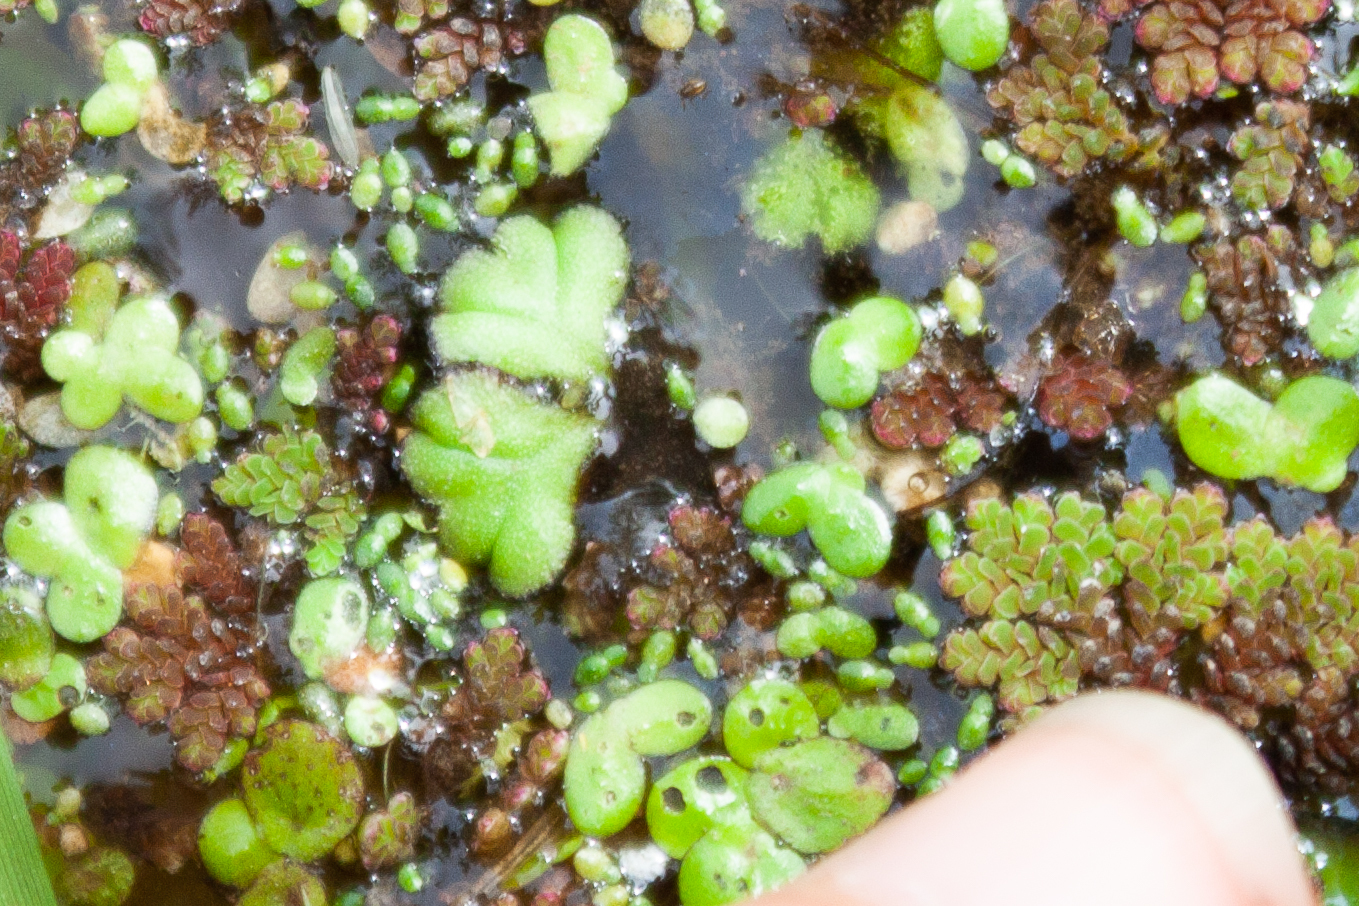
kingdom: Plantae
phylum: Marchantiophyta
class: Marchantiopsida
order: Marchantiales
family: Ricciaceae
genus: Ricciocarpos
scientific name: Ricciocarpos natans
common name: Purple-fringed liverwort
